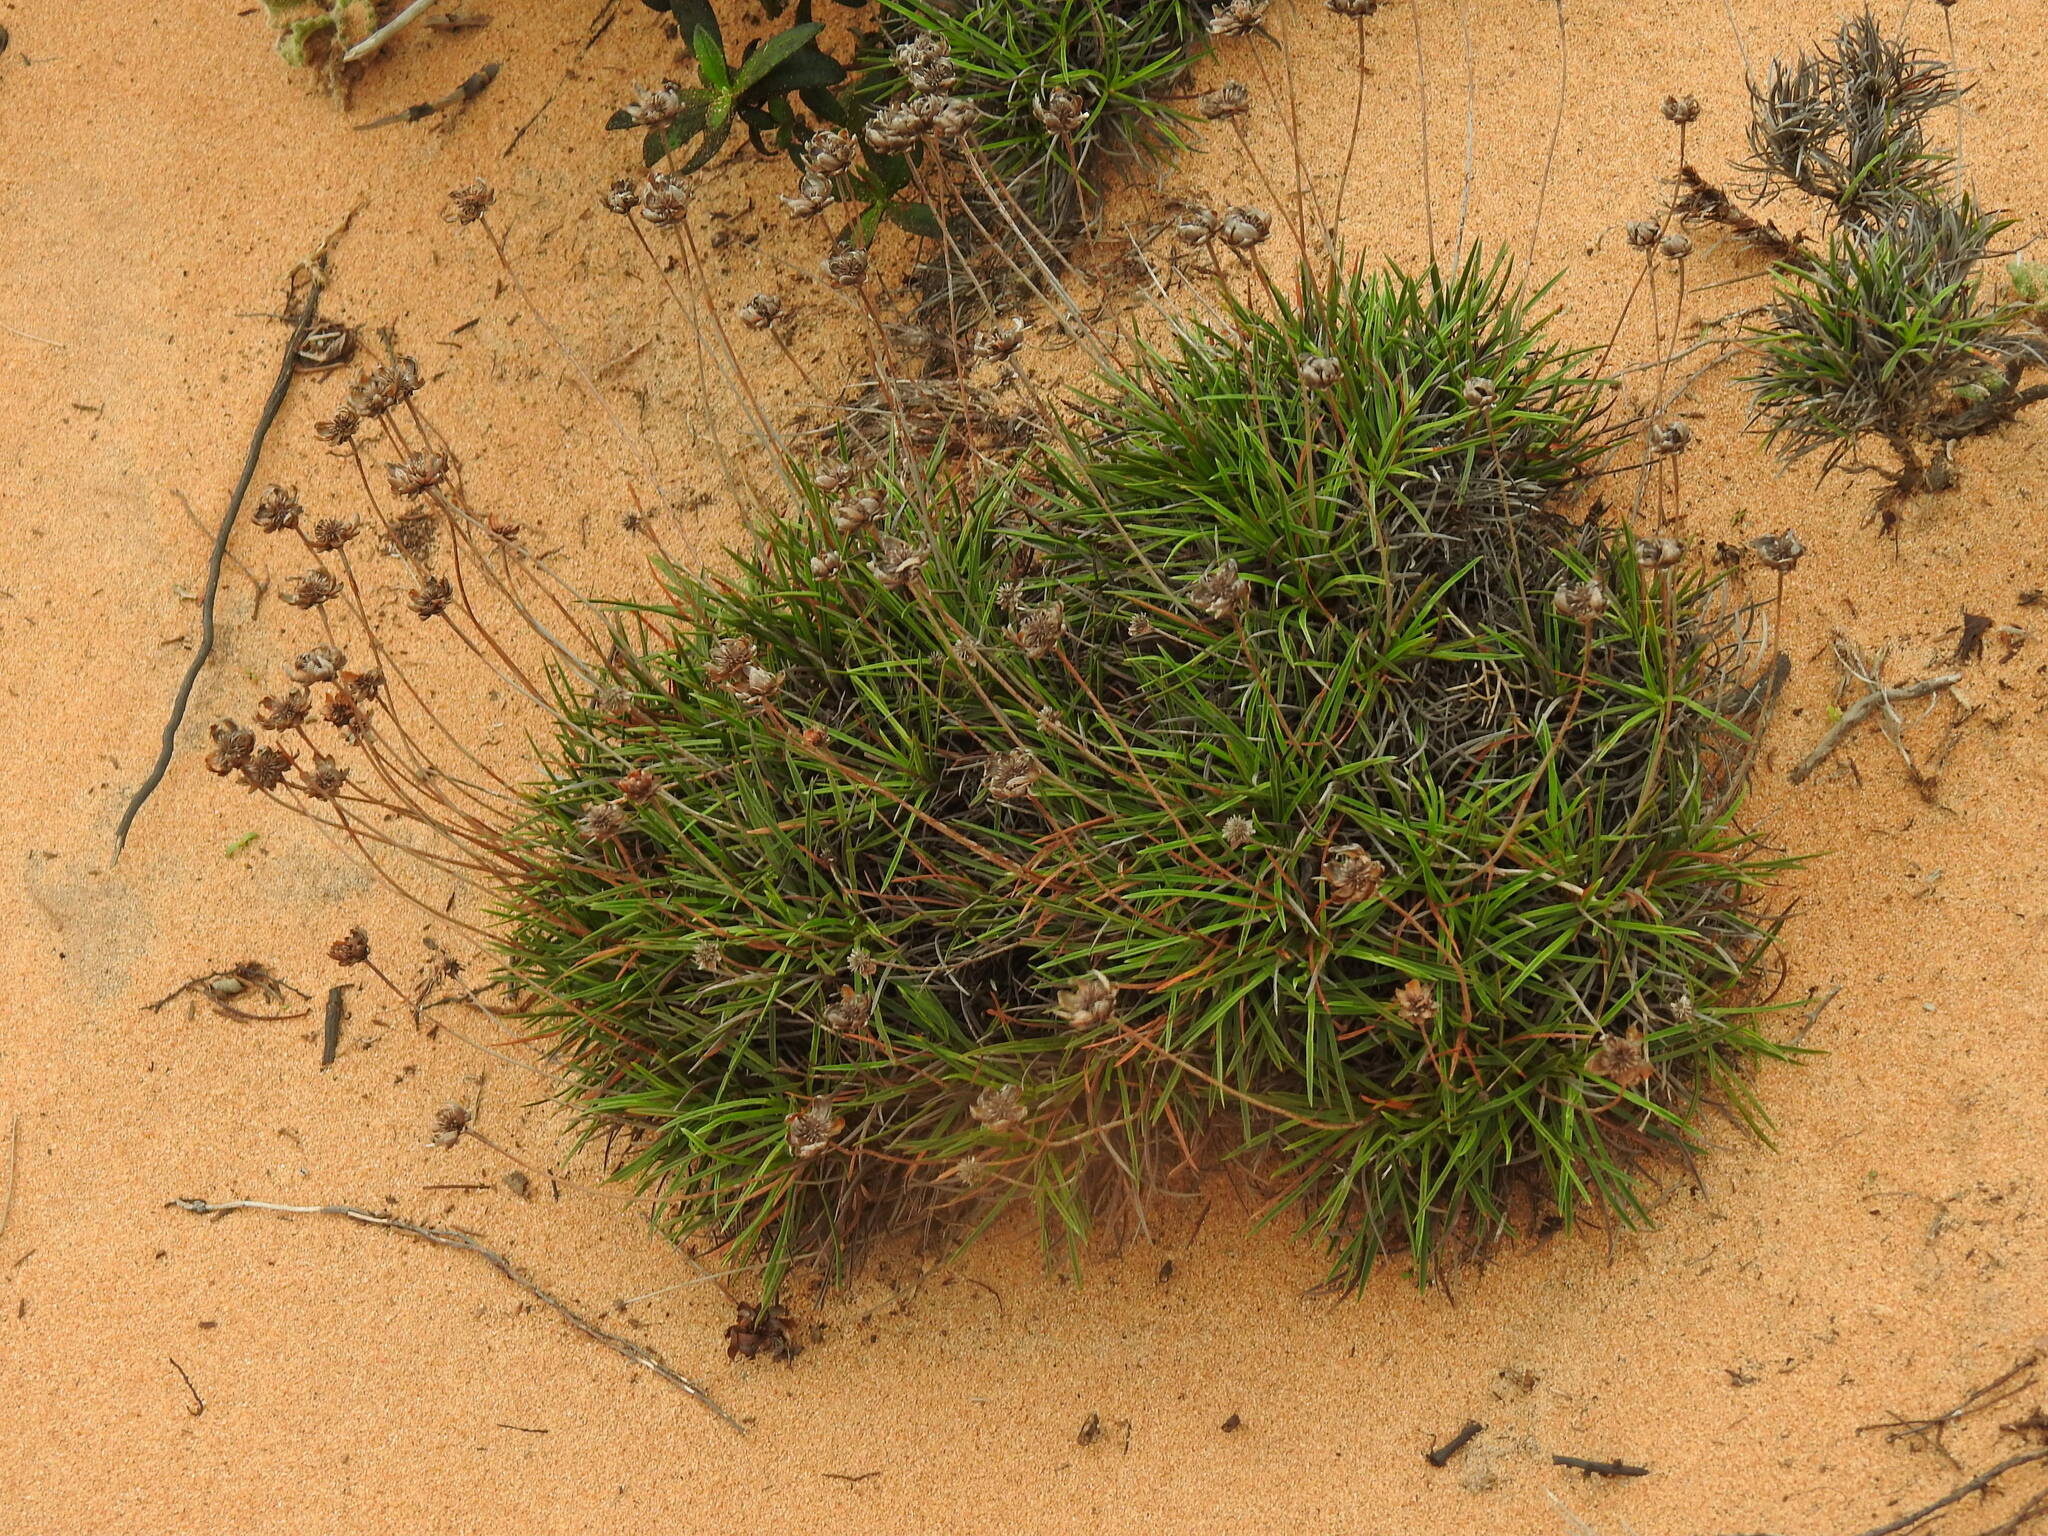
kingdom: Plantae
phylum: Tracheophyta
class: Magnoliopsida
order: Caryophyllales
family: Plumbaginaceae
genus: Armeria
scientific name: Armeria pungens
